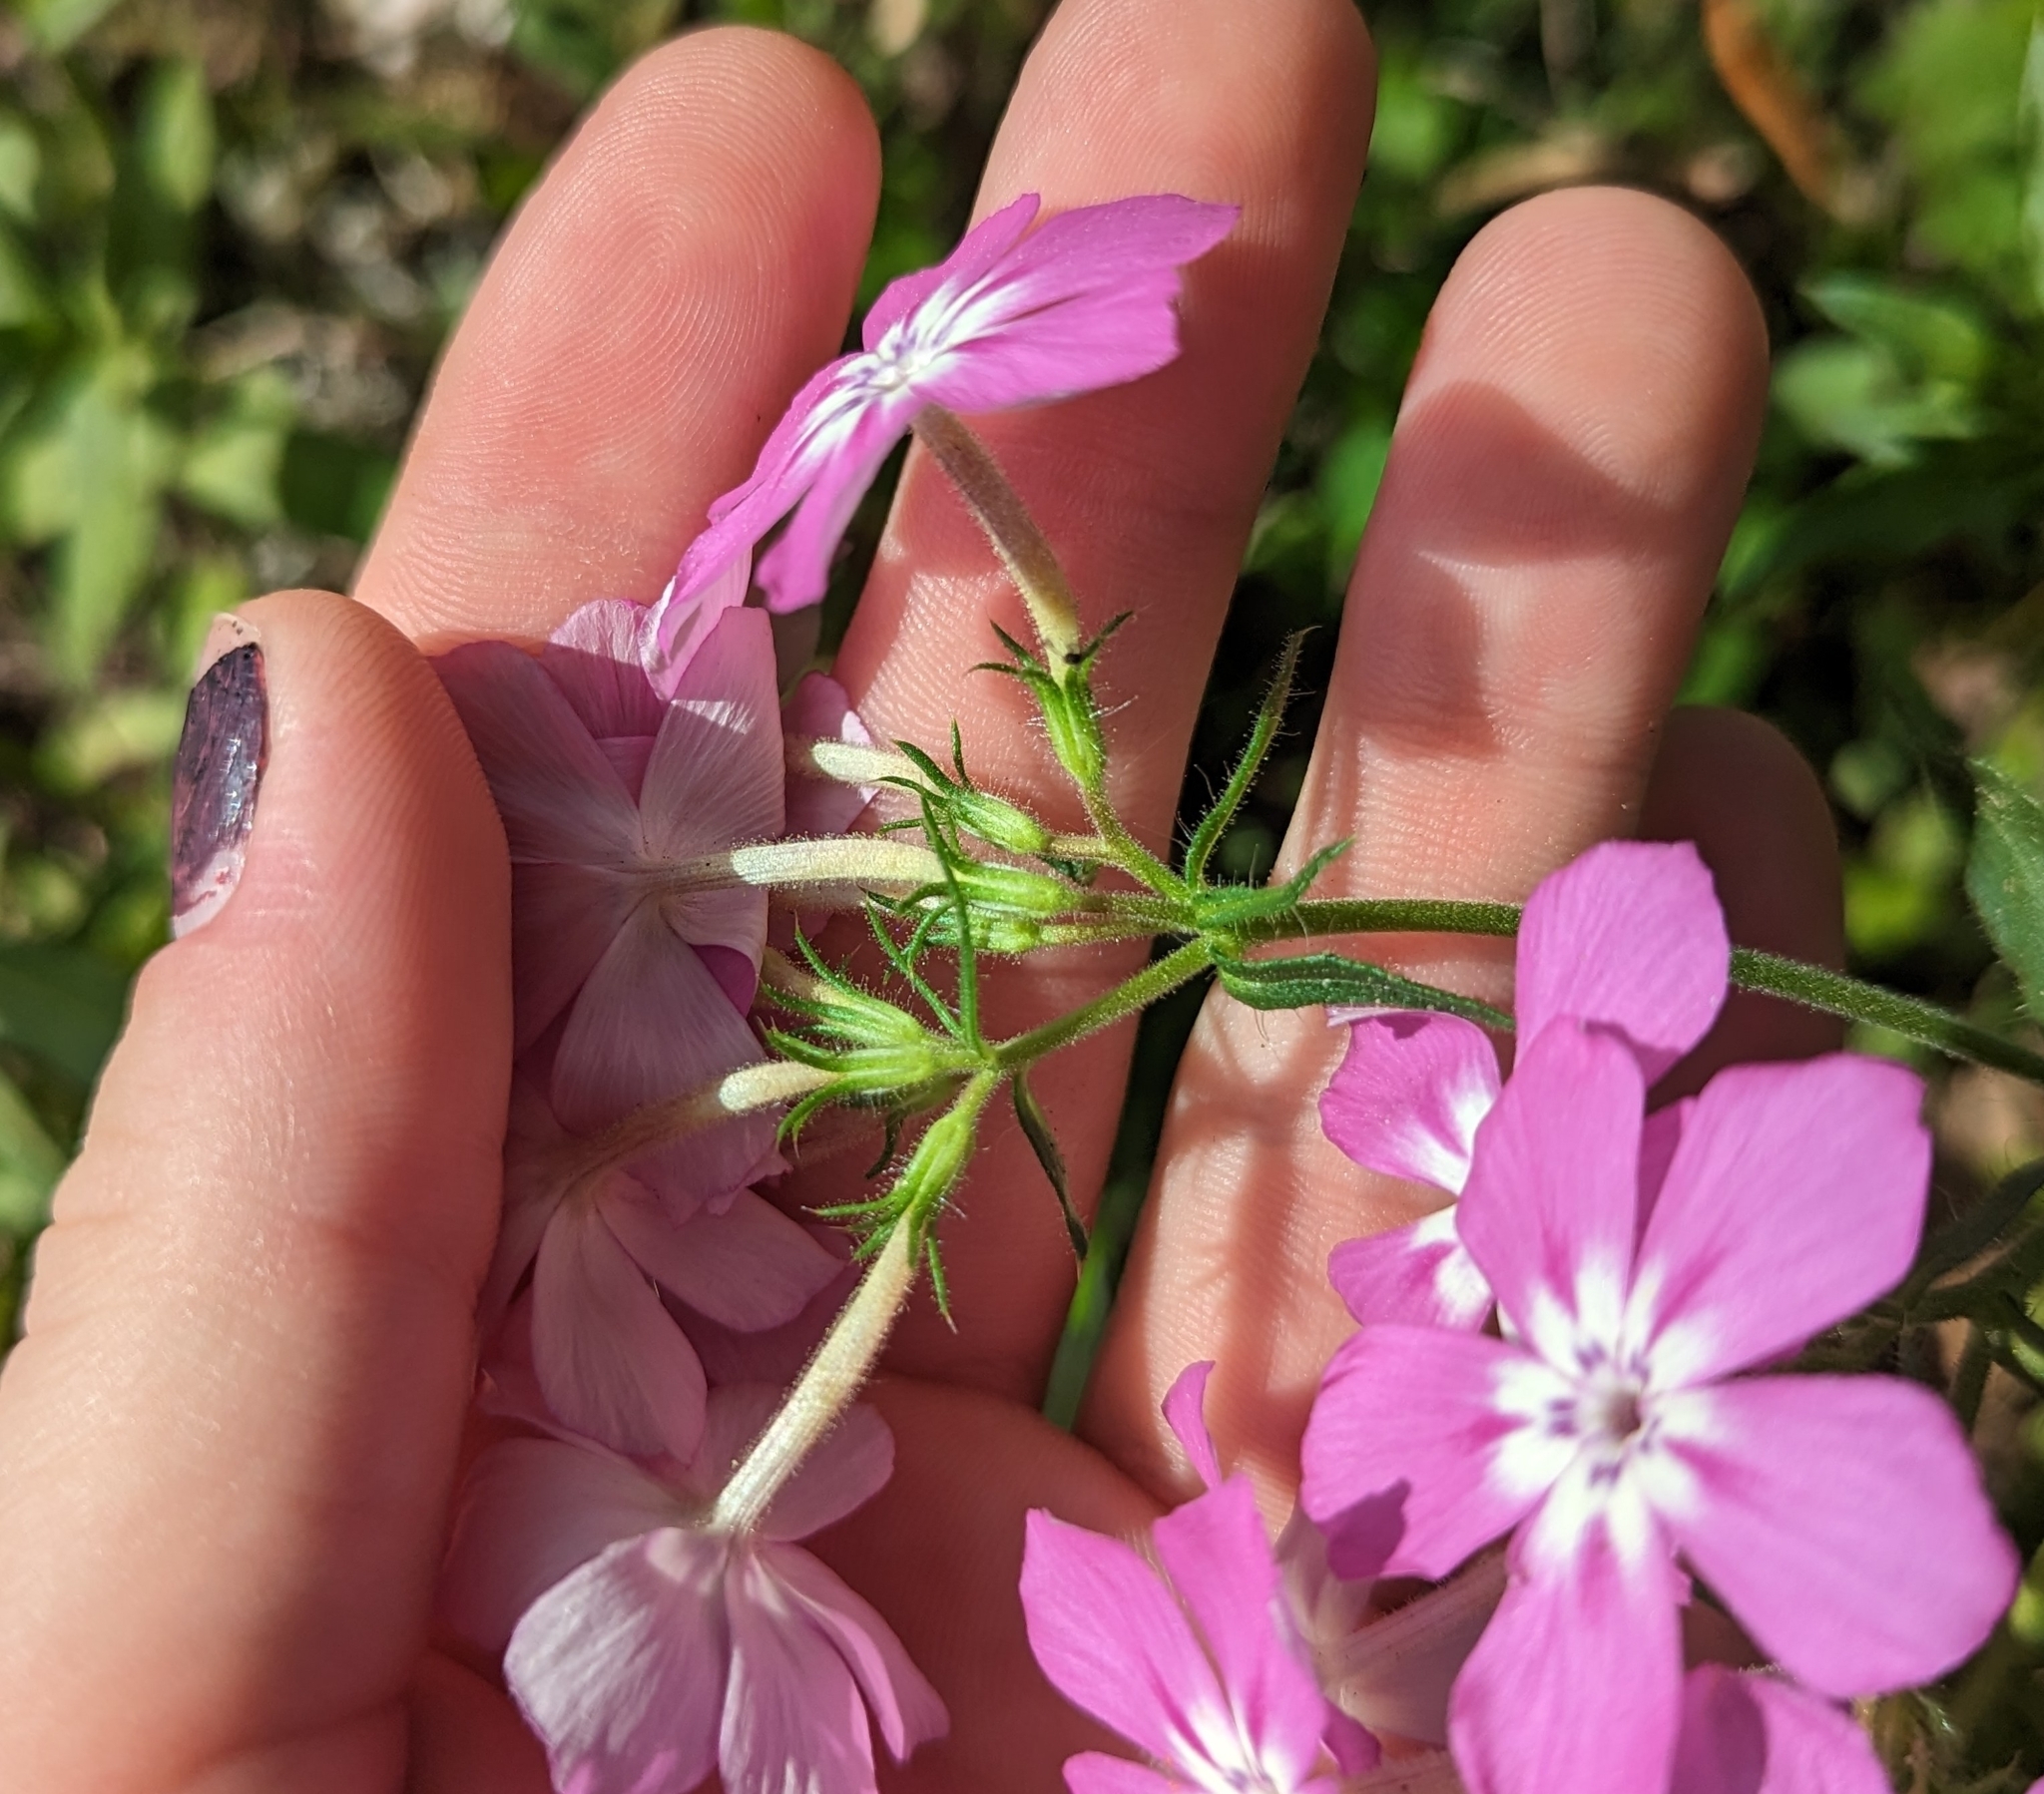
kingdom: Plantae
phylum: Tracheophyta
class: Magnoliopsida
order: Ericales
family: Polemoniaceae
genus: Phlox
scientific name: Phlox drummondii
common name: Drummond's phlox
